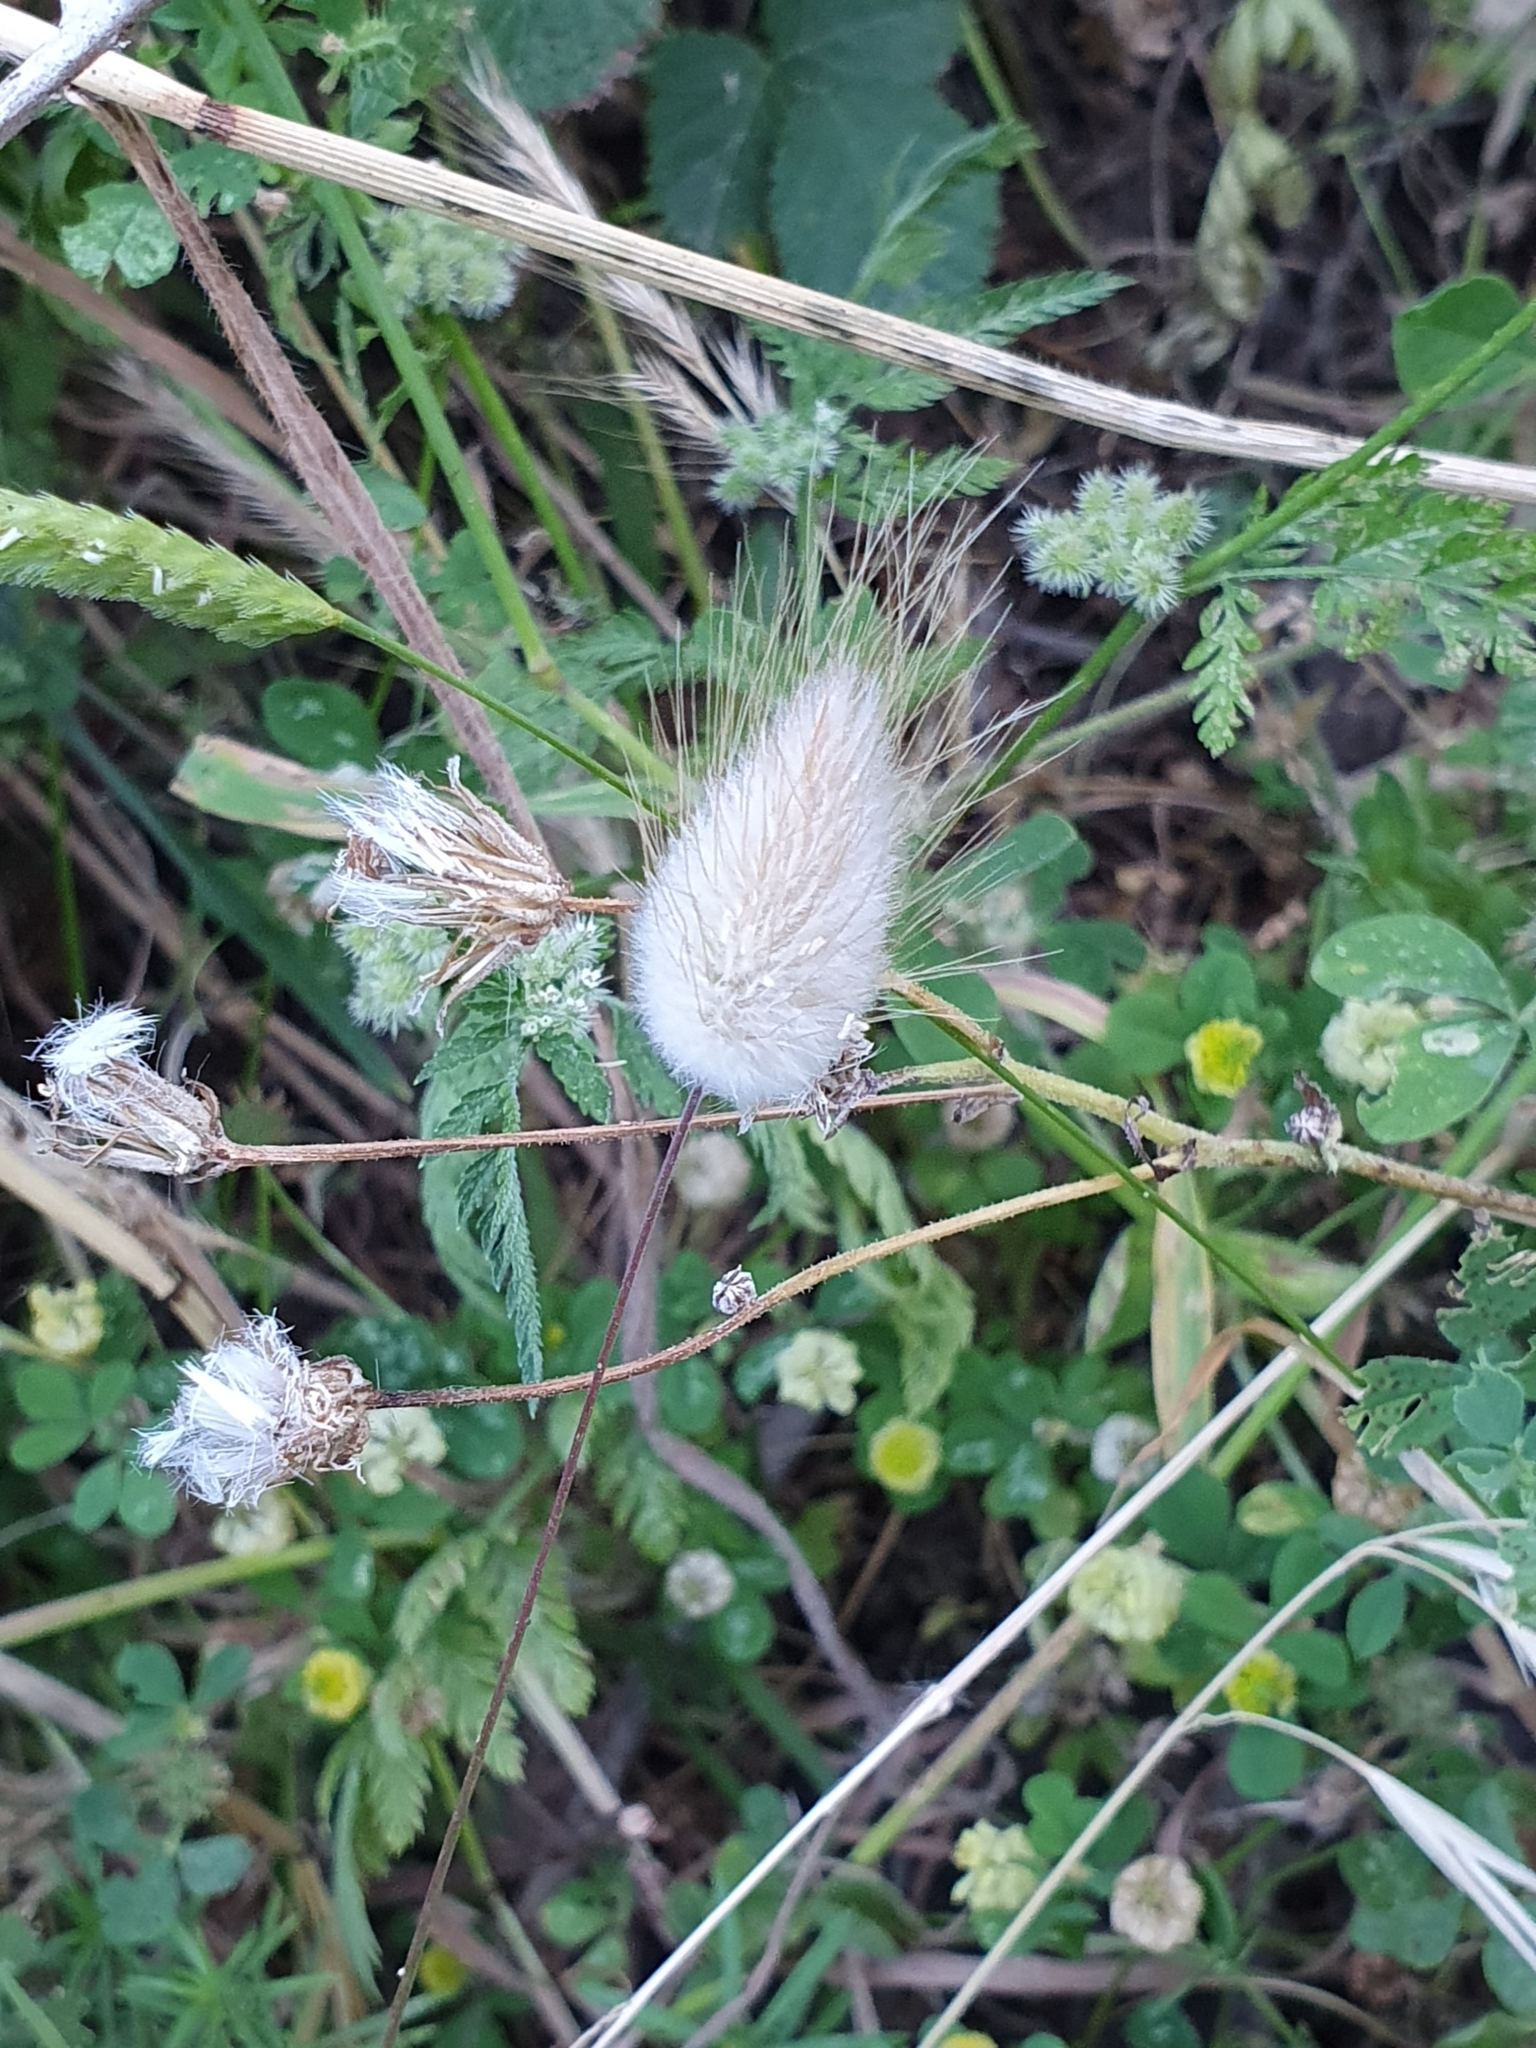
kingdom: Plantae
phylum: Tracheophyta
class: Liliopsida
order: Poales
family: Poaceae
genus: Lagurus
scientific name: Lagurus ovatus
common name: Hare's-tail
